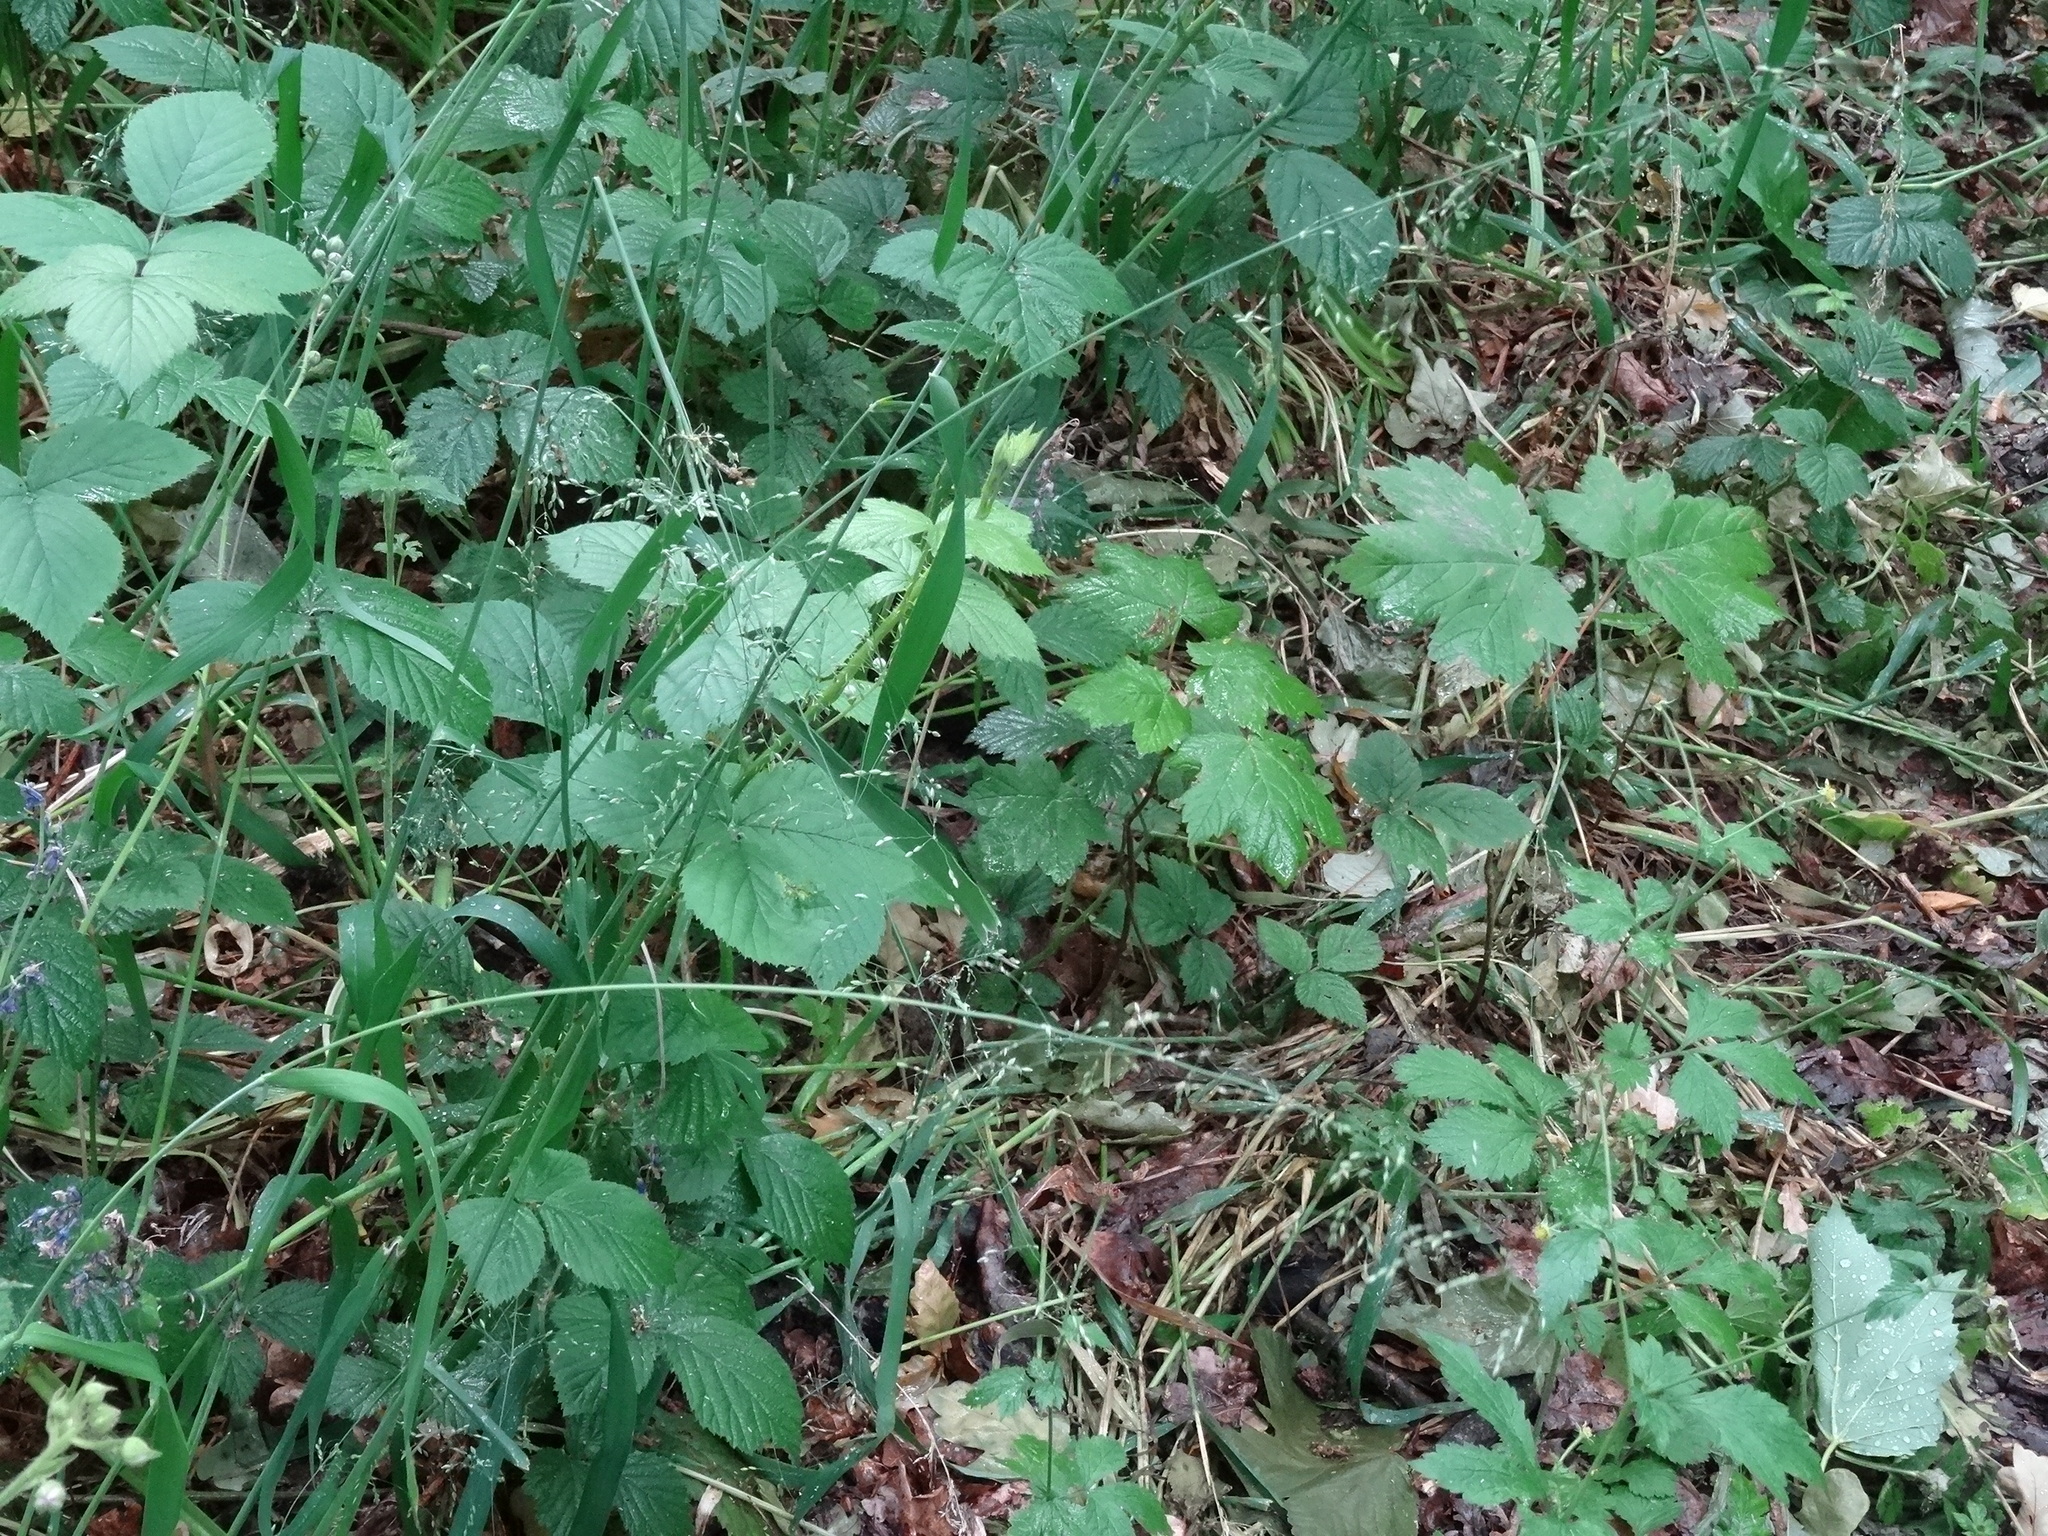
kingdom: Plantae
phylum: Tracheophyta
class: Liliopsida
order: Poales
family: Poaceae
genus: Milium
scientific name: Milium effusum
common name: Wood millet
